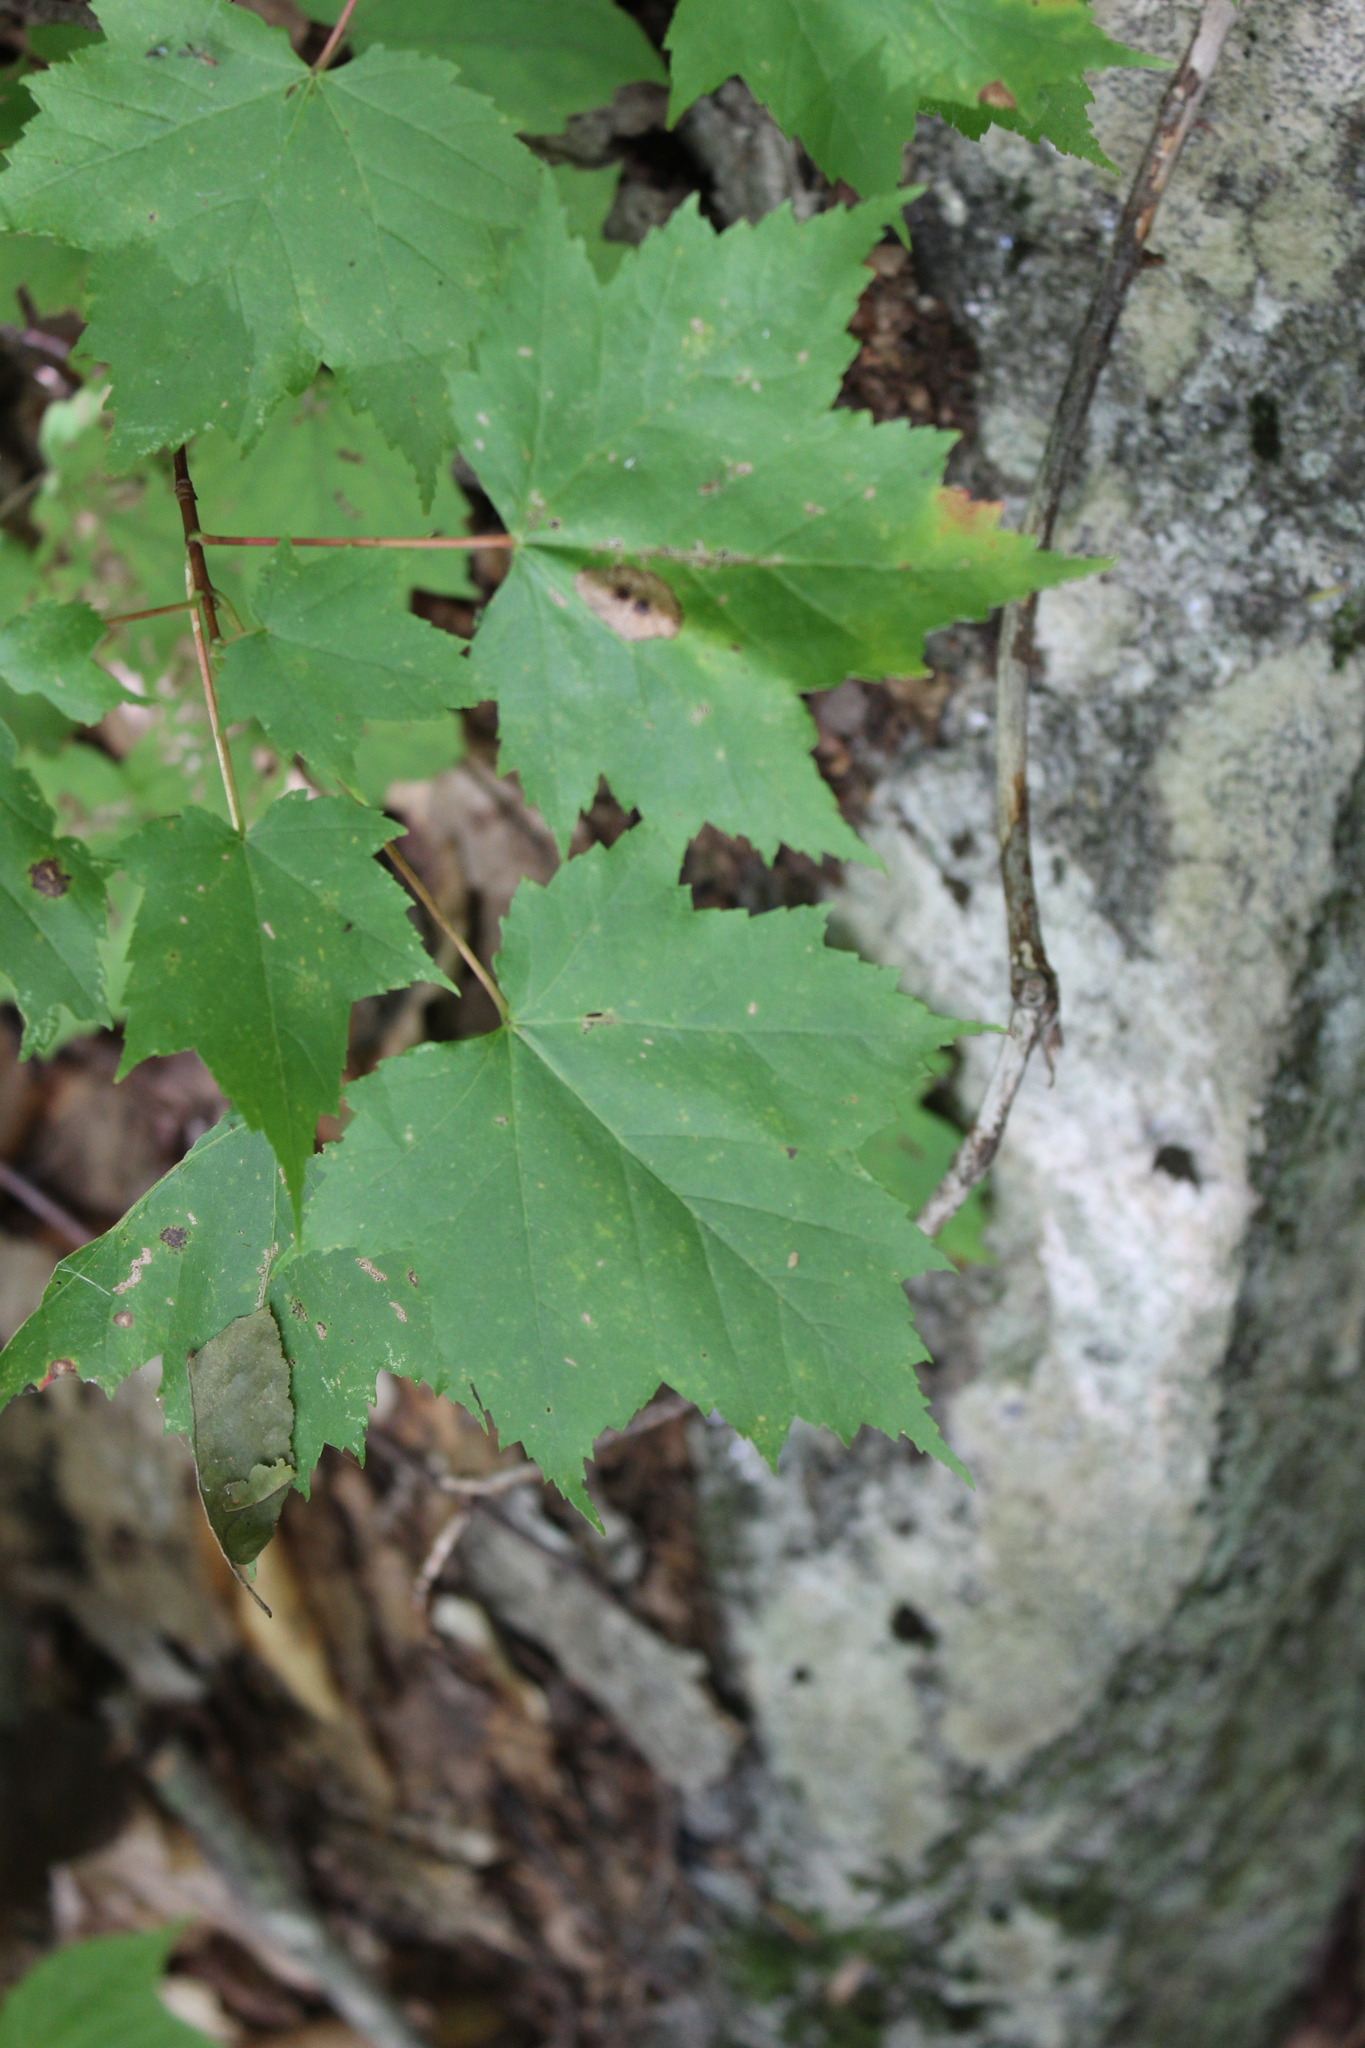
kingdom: Plantae
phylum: Tracheophyta
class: Magnoliopsida
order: Sapindales
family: Sapindaceae
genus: Acer
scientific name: Acer rubrum
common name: Red maple
